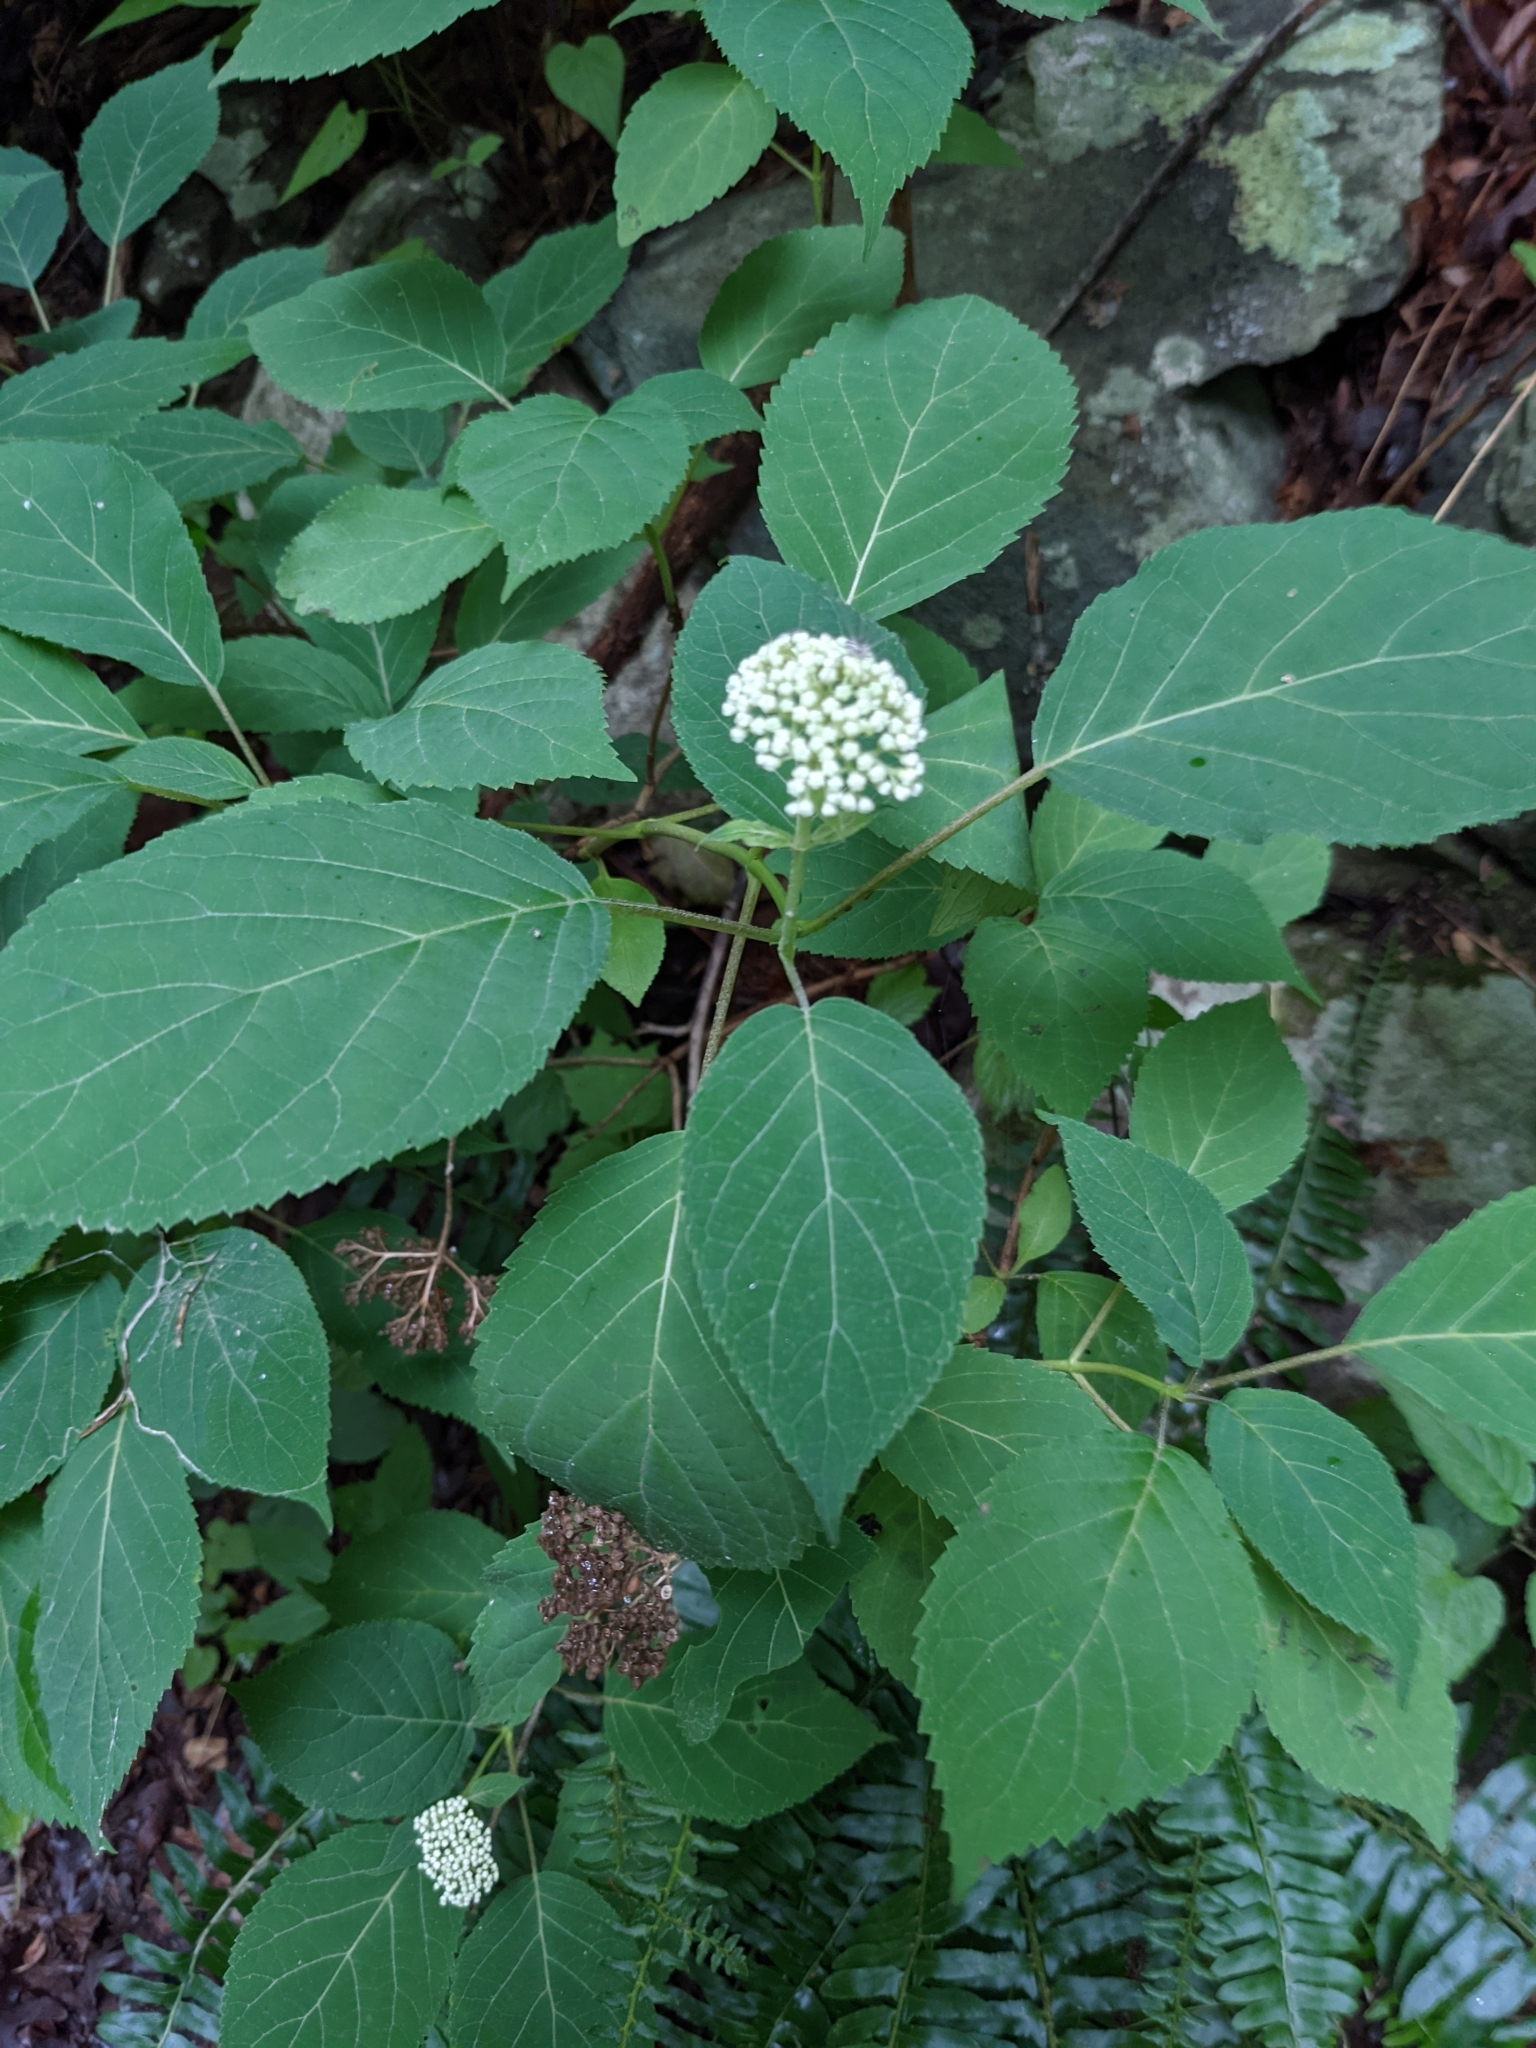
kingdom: Plantae
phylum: Tracheophyta
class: Magnoliopsida
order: Cornales
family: Hydrangeaceae
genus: Hydrangea
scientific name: Hydrangea arborescens
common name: Sevenbark
